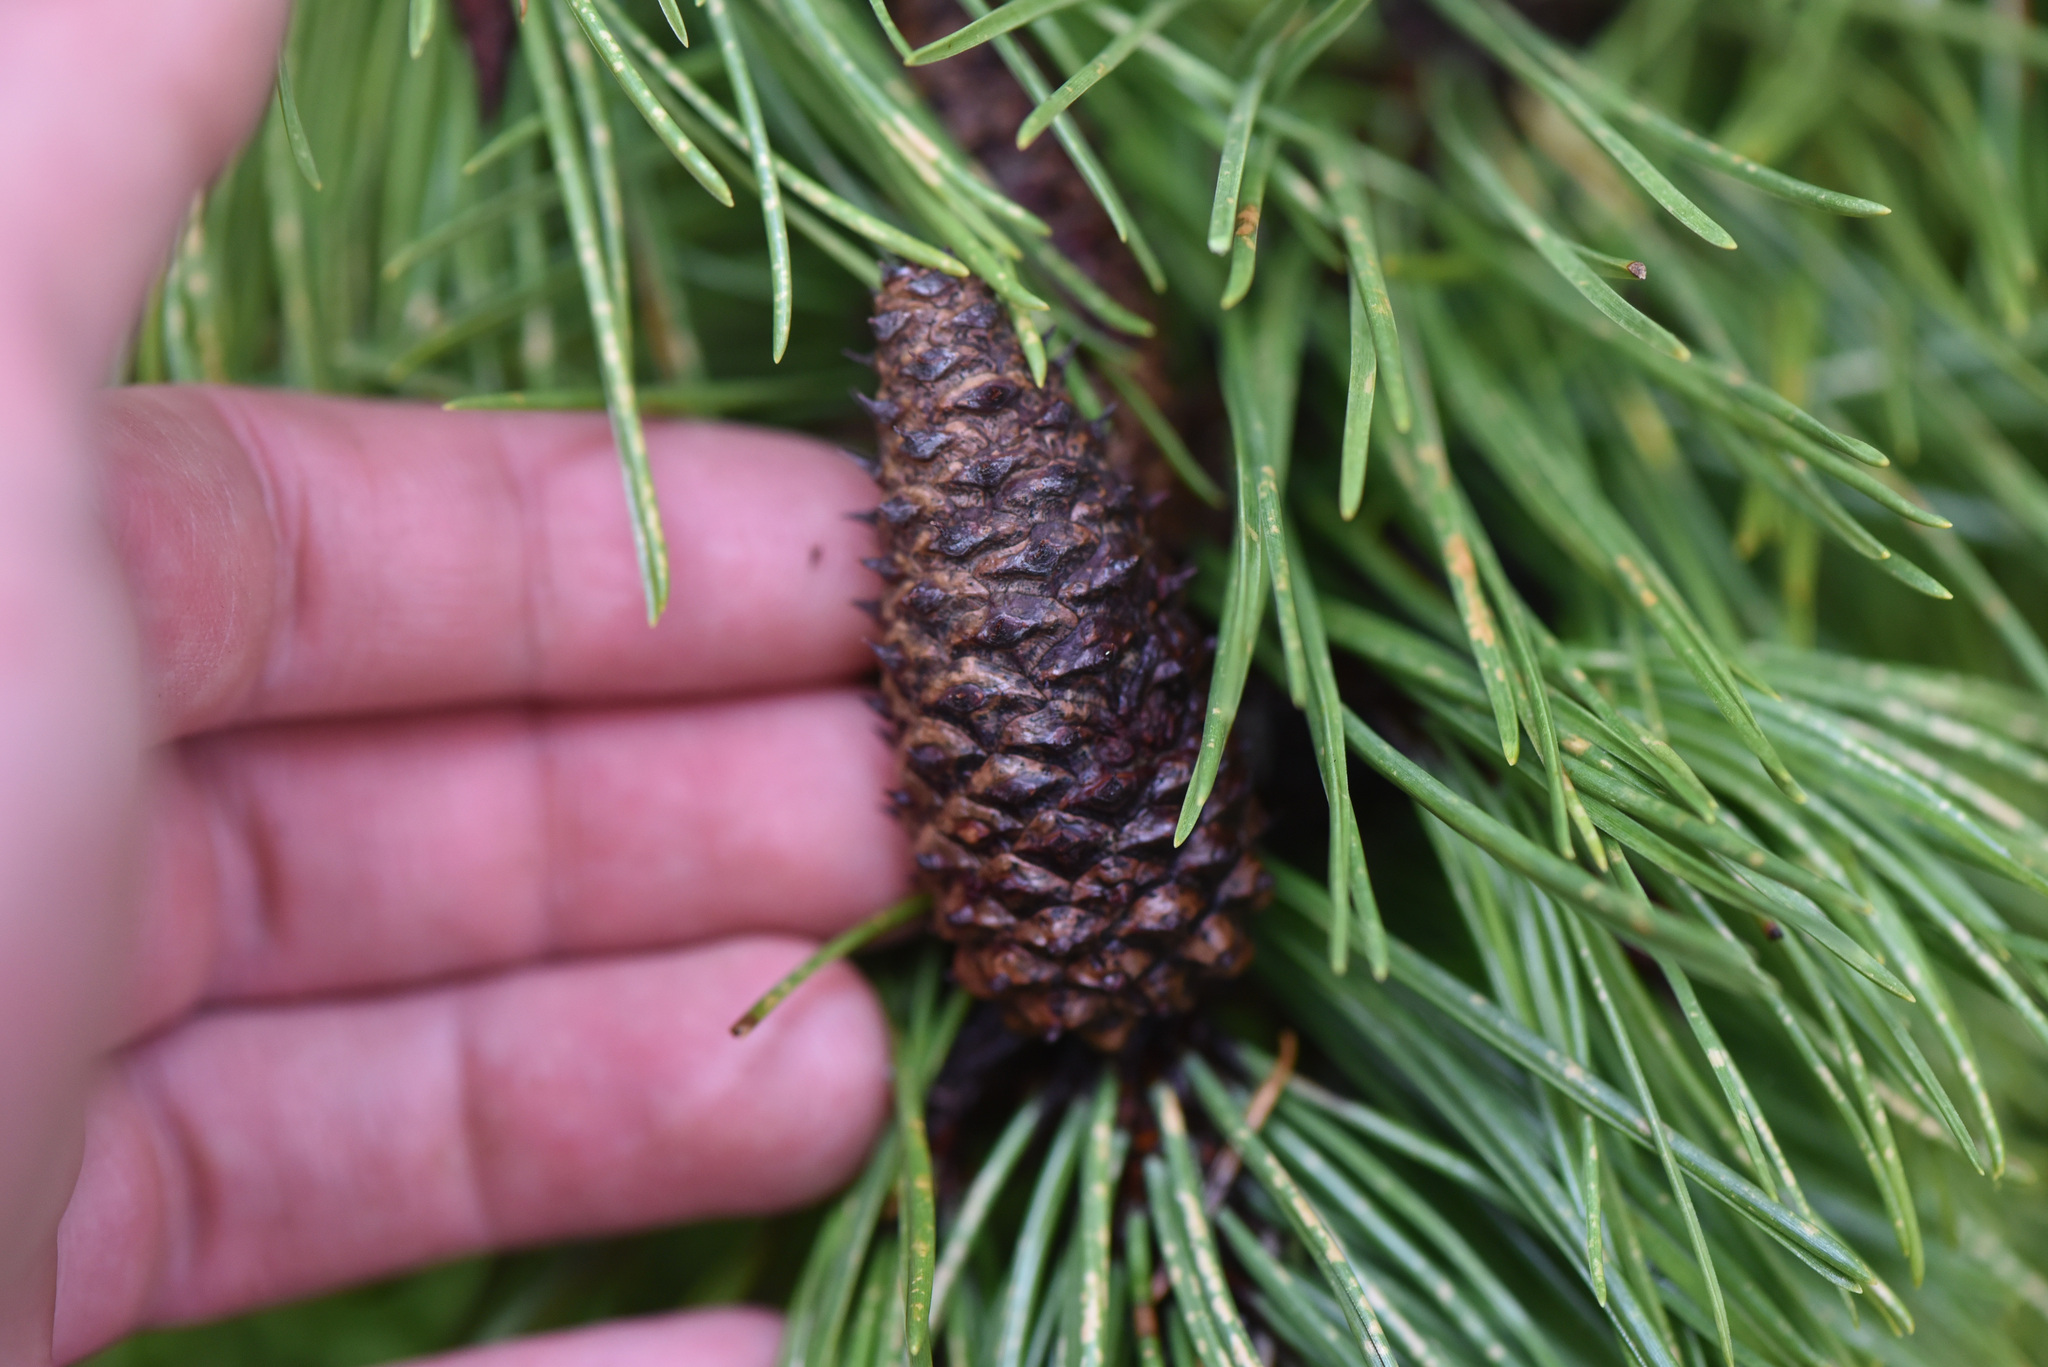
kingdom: Plantae
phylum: Tracheophyta
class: Pinopsida
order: Pinales
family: Pinaceae
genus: Pinus
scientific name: Pinus contorta
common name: Lodgepole pine
